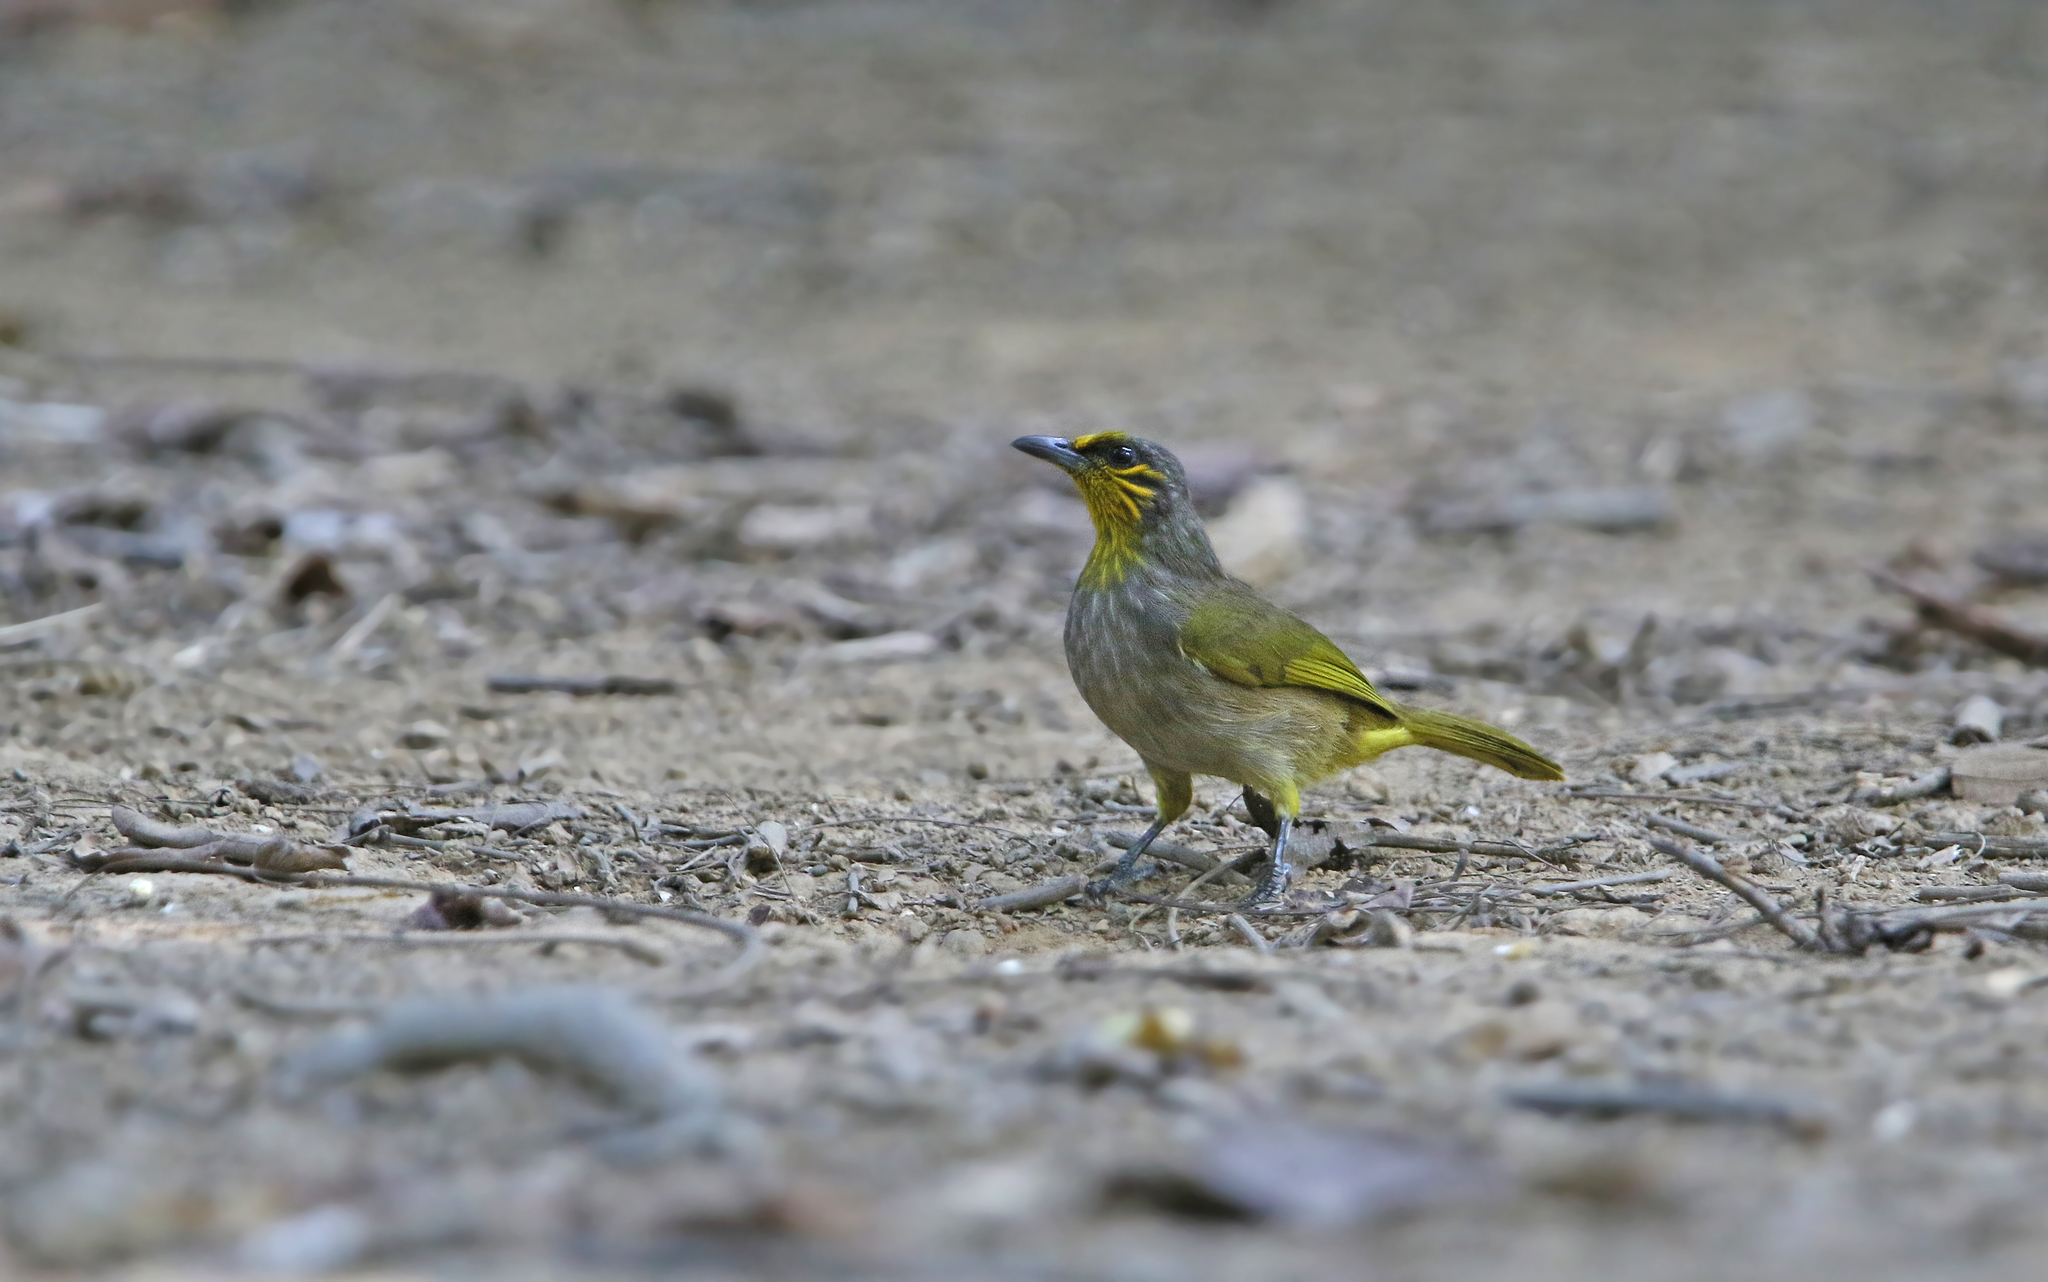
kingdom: Animalia
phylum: Chordata
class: Aves
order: Passeriformes
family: Pycnonotidae
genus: Pycnonotus
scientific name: Pycnonotus finlaysoni
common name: Stripe-throated bulbul
